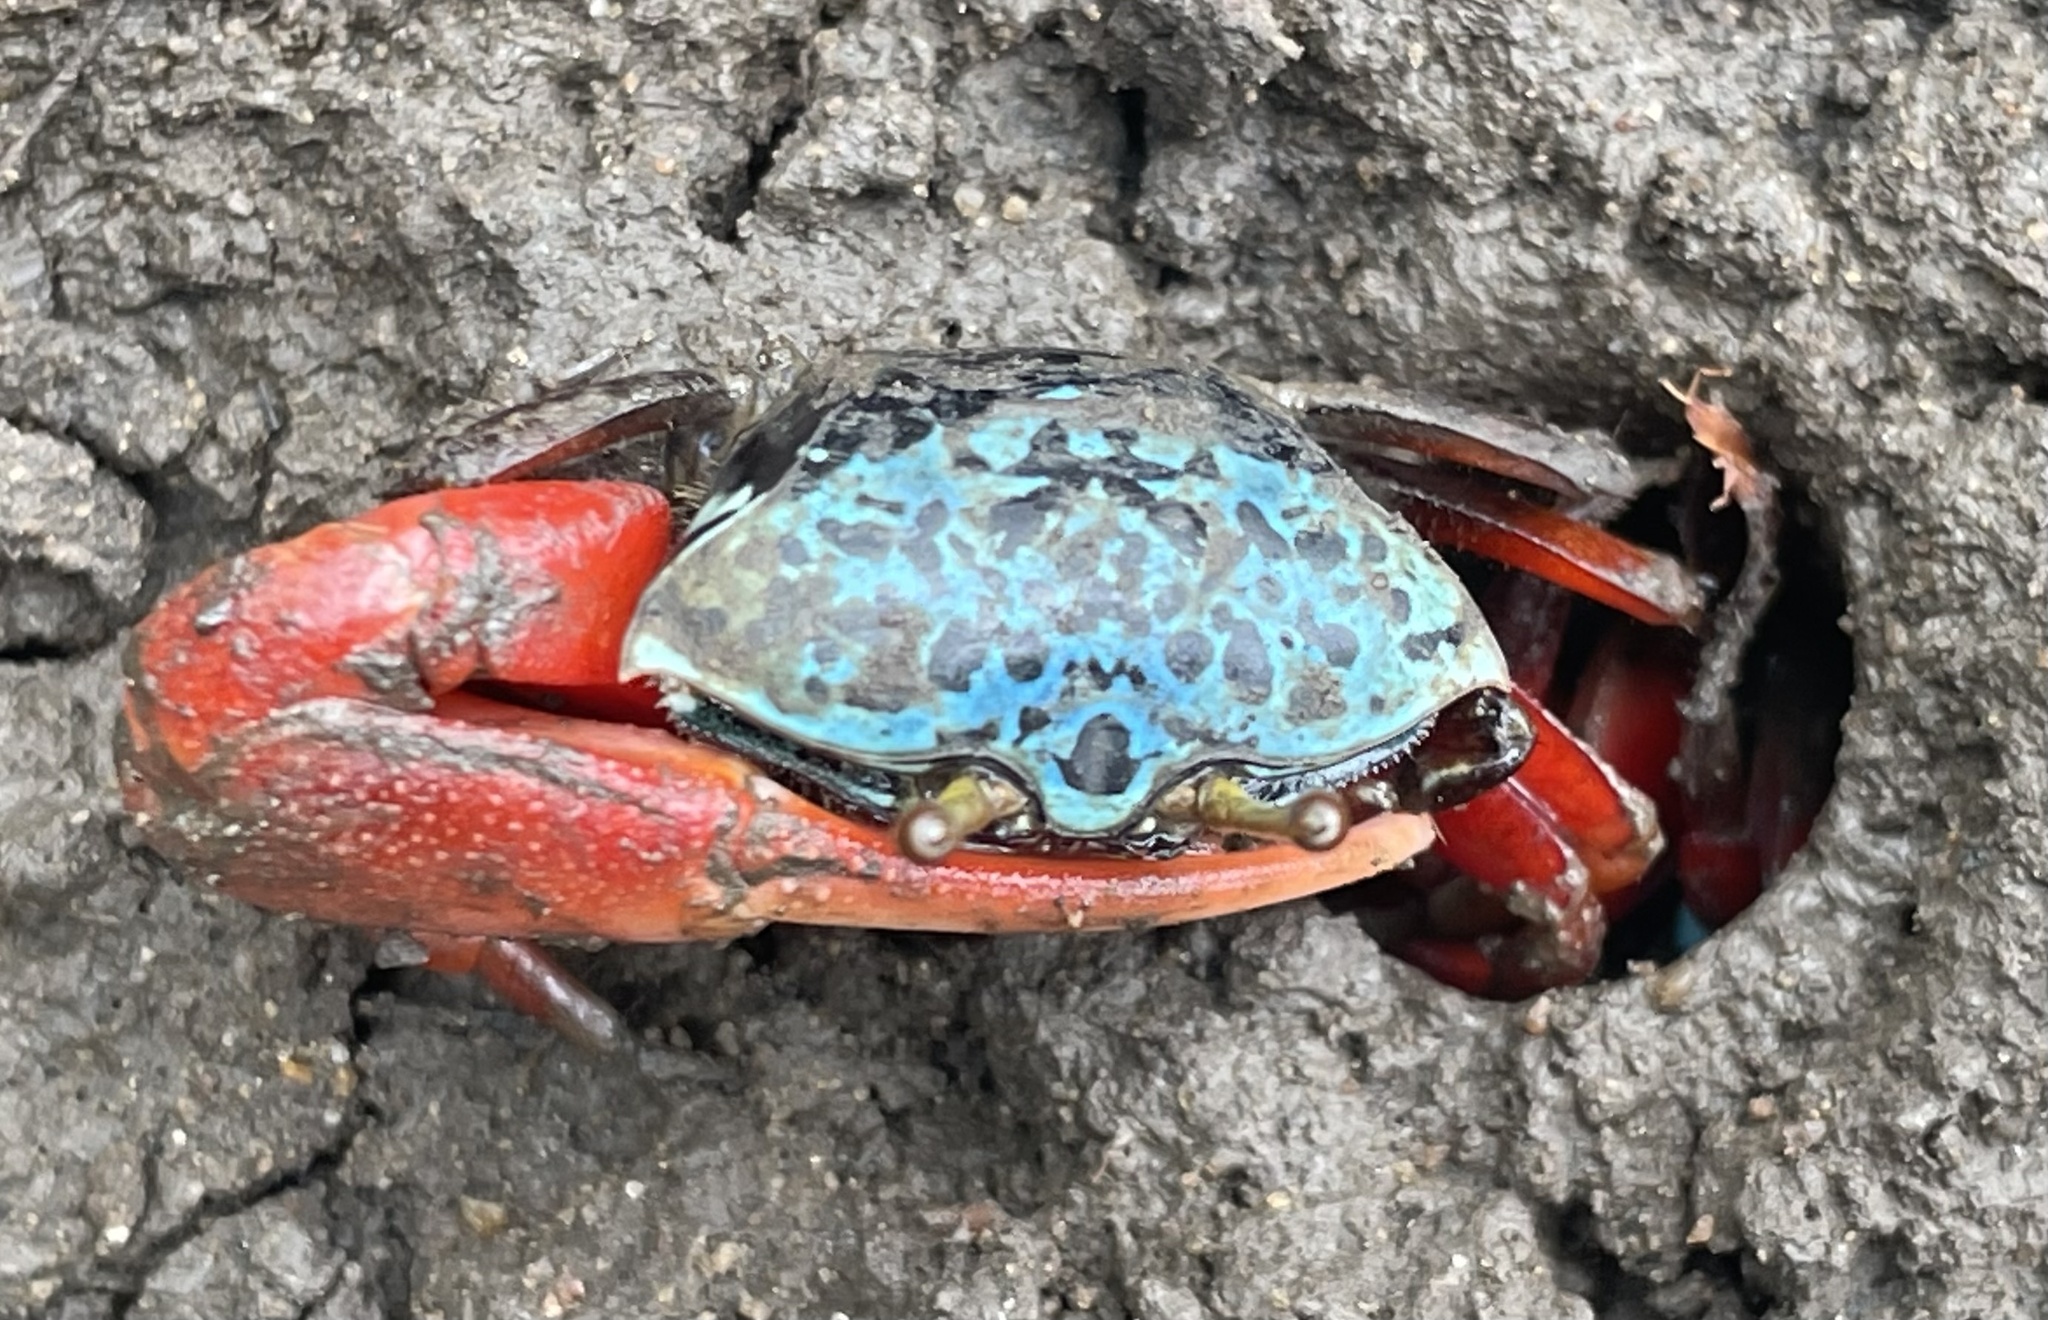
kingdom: Animalia
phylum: Arthropoda
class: Malacostraca
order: Decapoda
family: Ocypodidae
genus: Paraleptuca
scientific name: Paraleptuca chlorophthalmus
